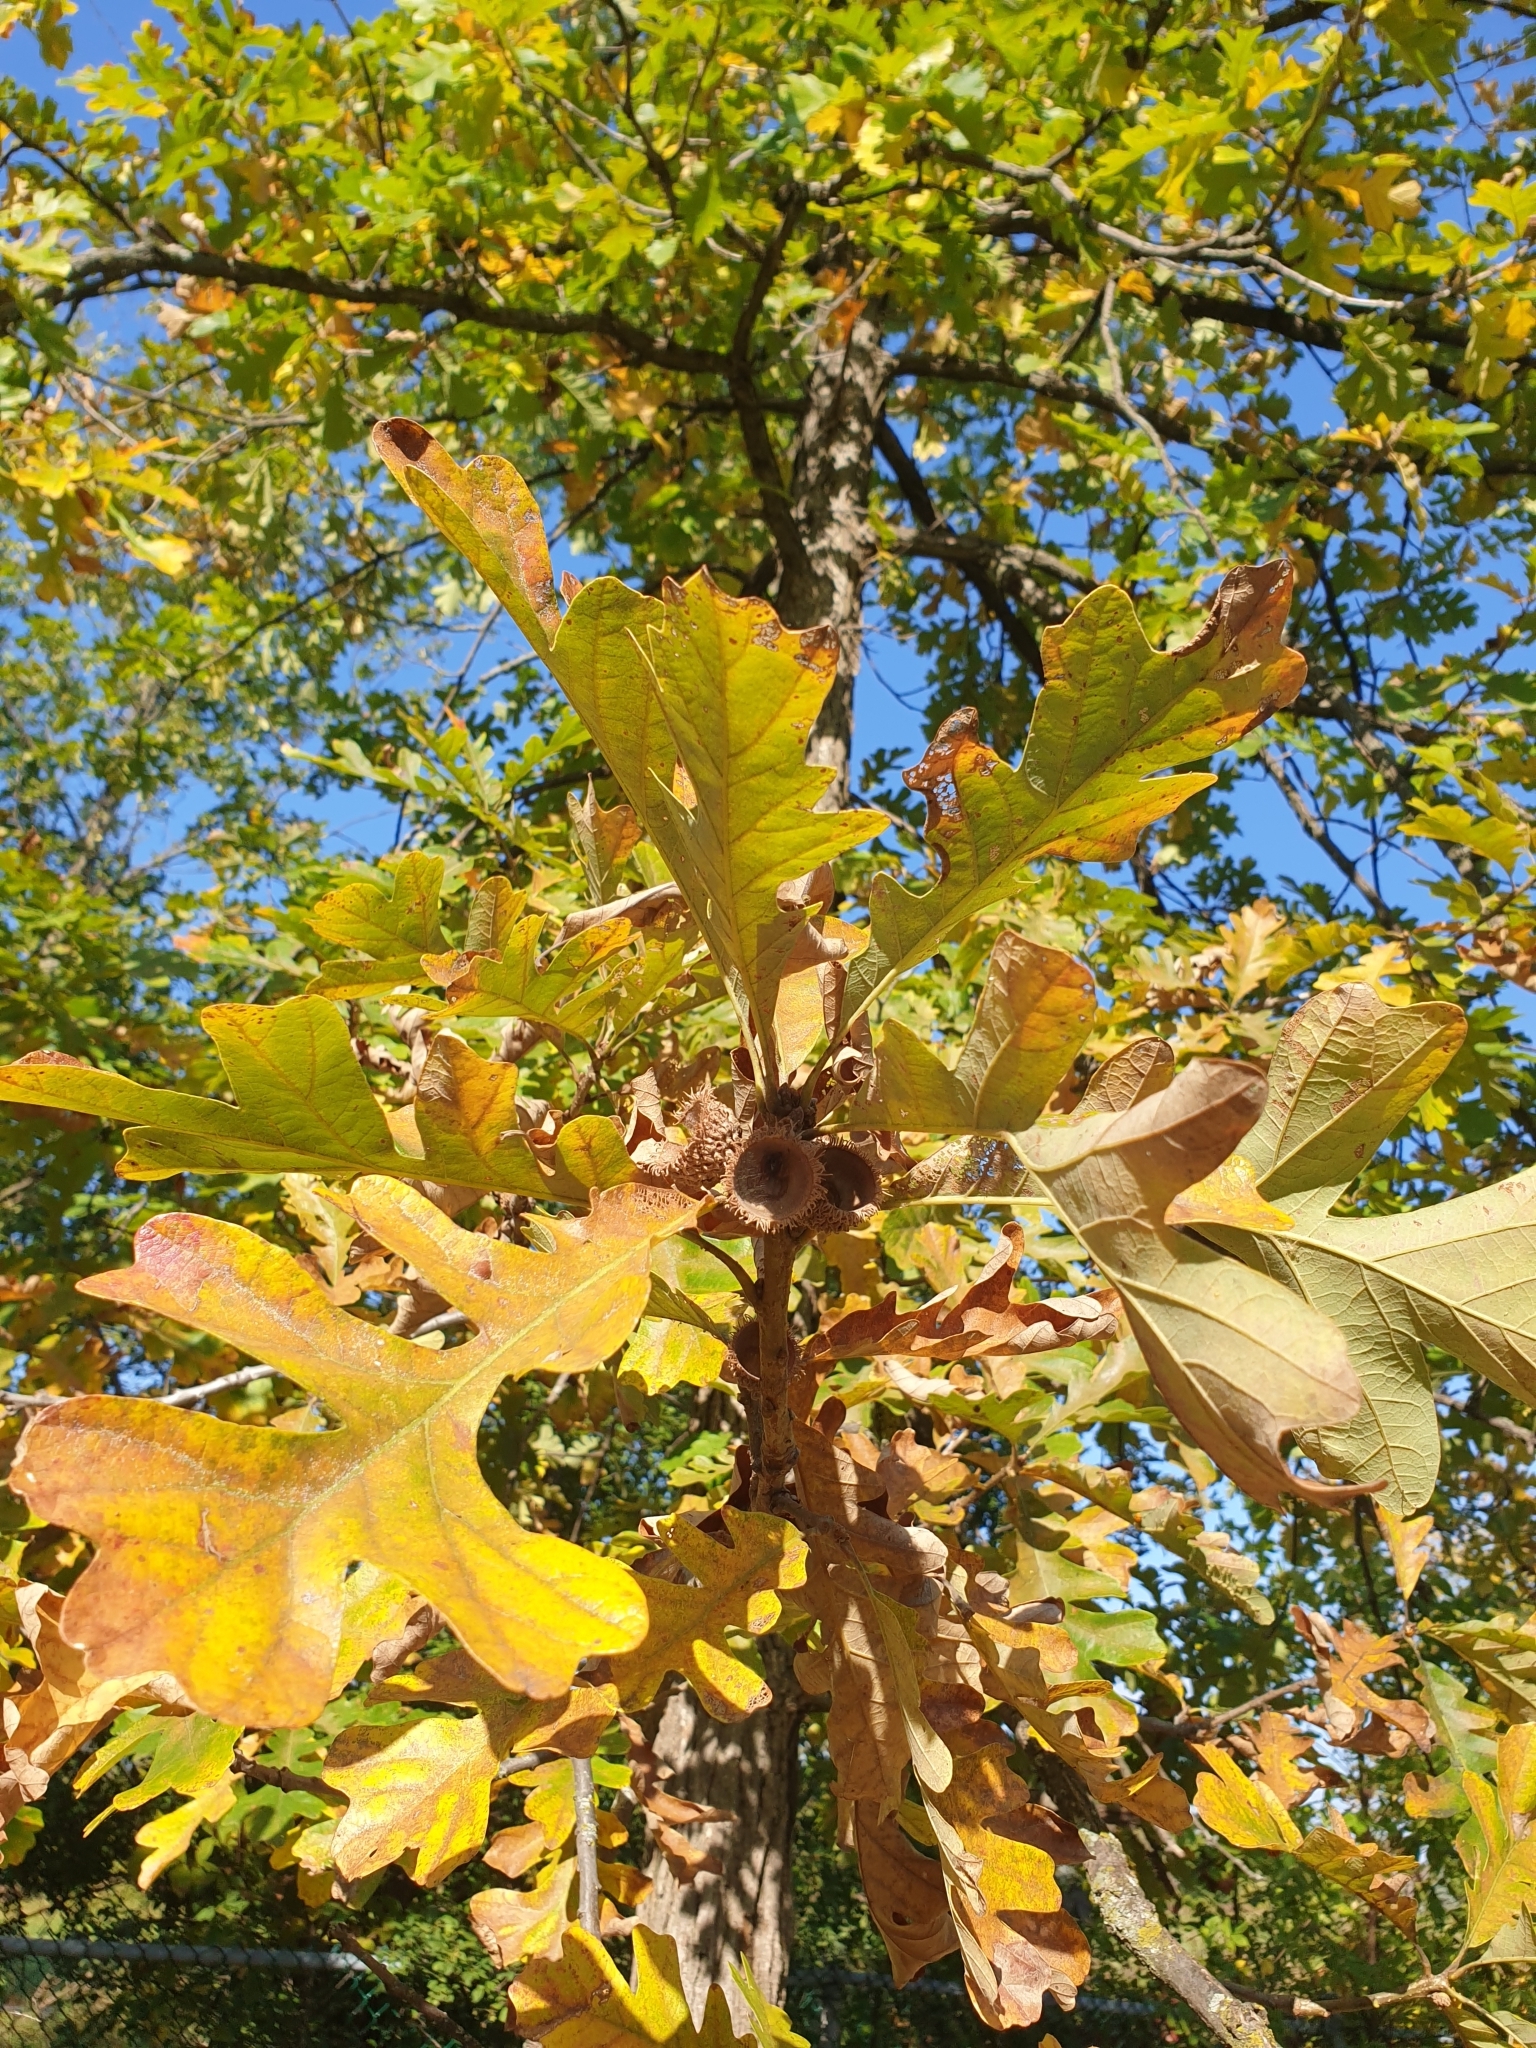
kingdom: Plantae
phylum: Tracheophyta
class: Magnoliopsida
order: Fagales
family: Fagaceae
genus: Quercus
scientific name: Quercus macrocarpa
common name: Bur oak
